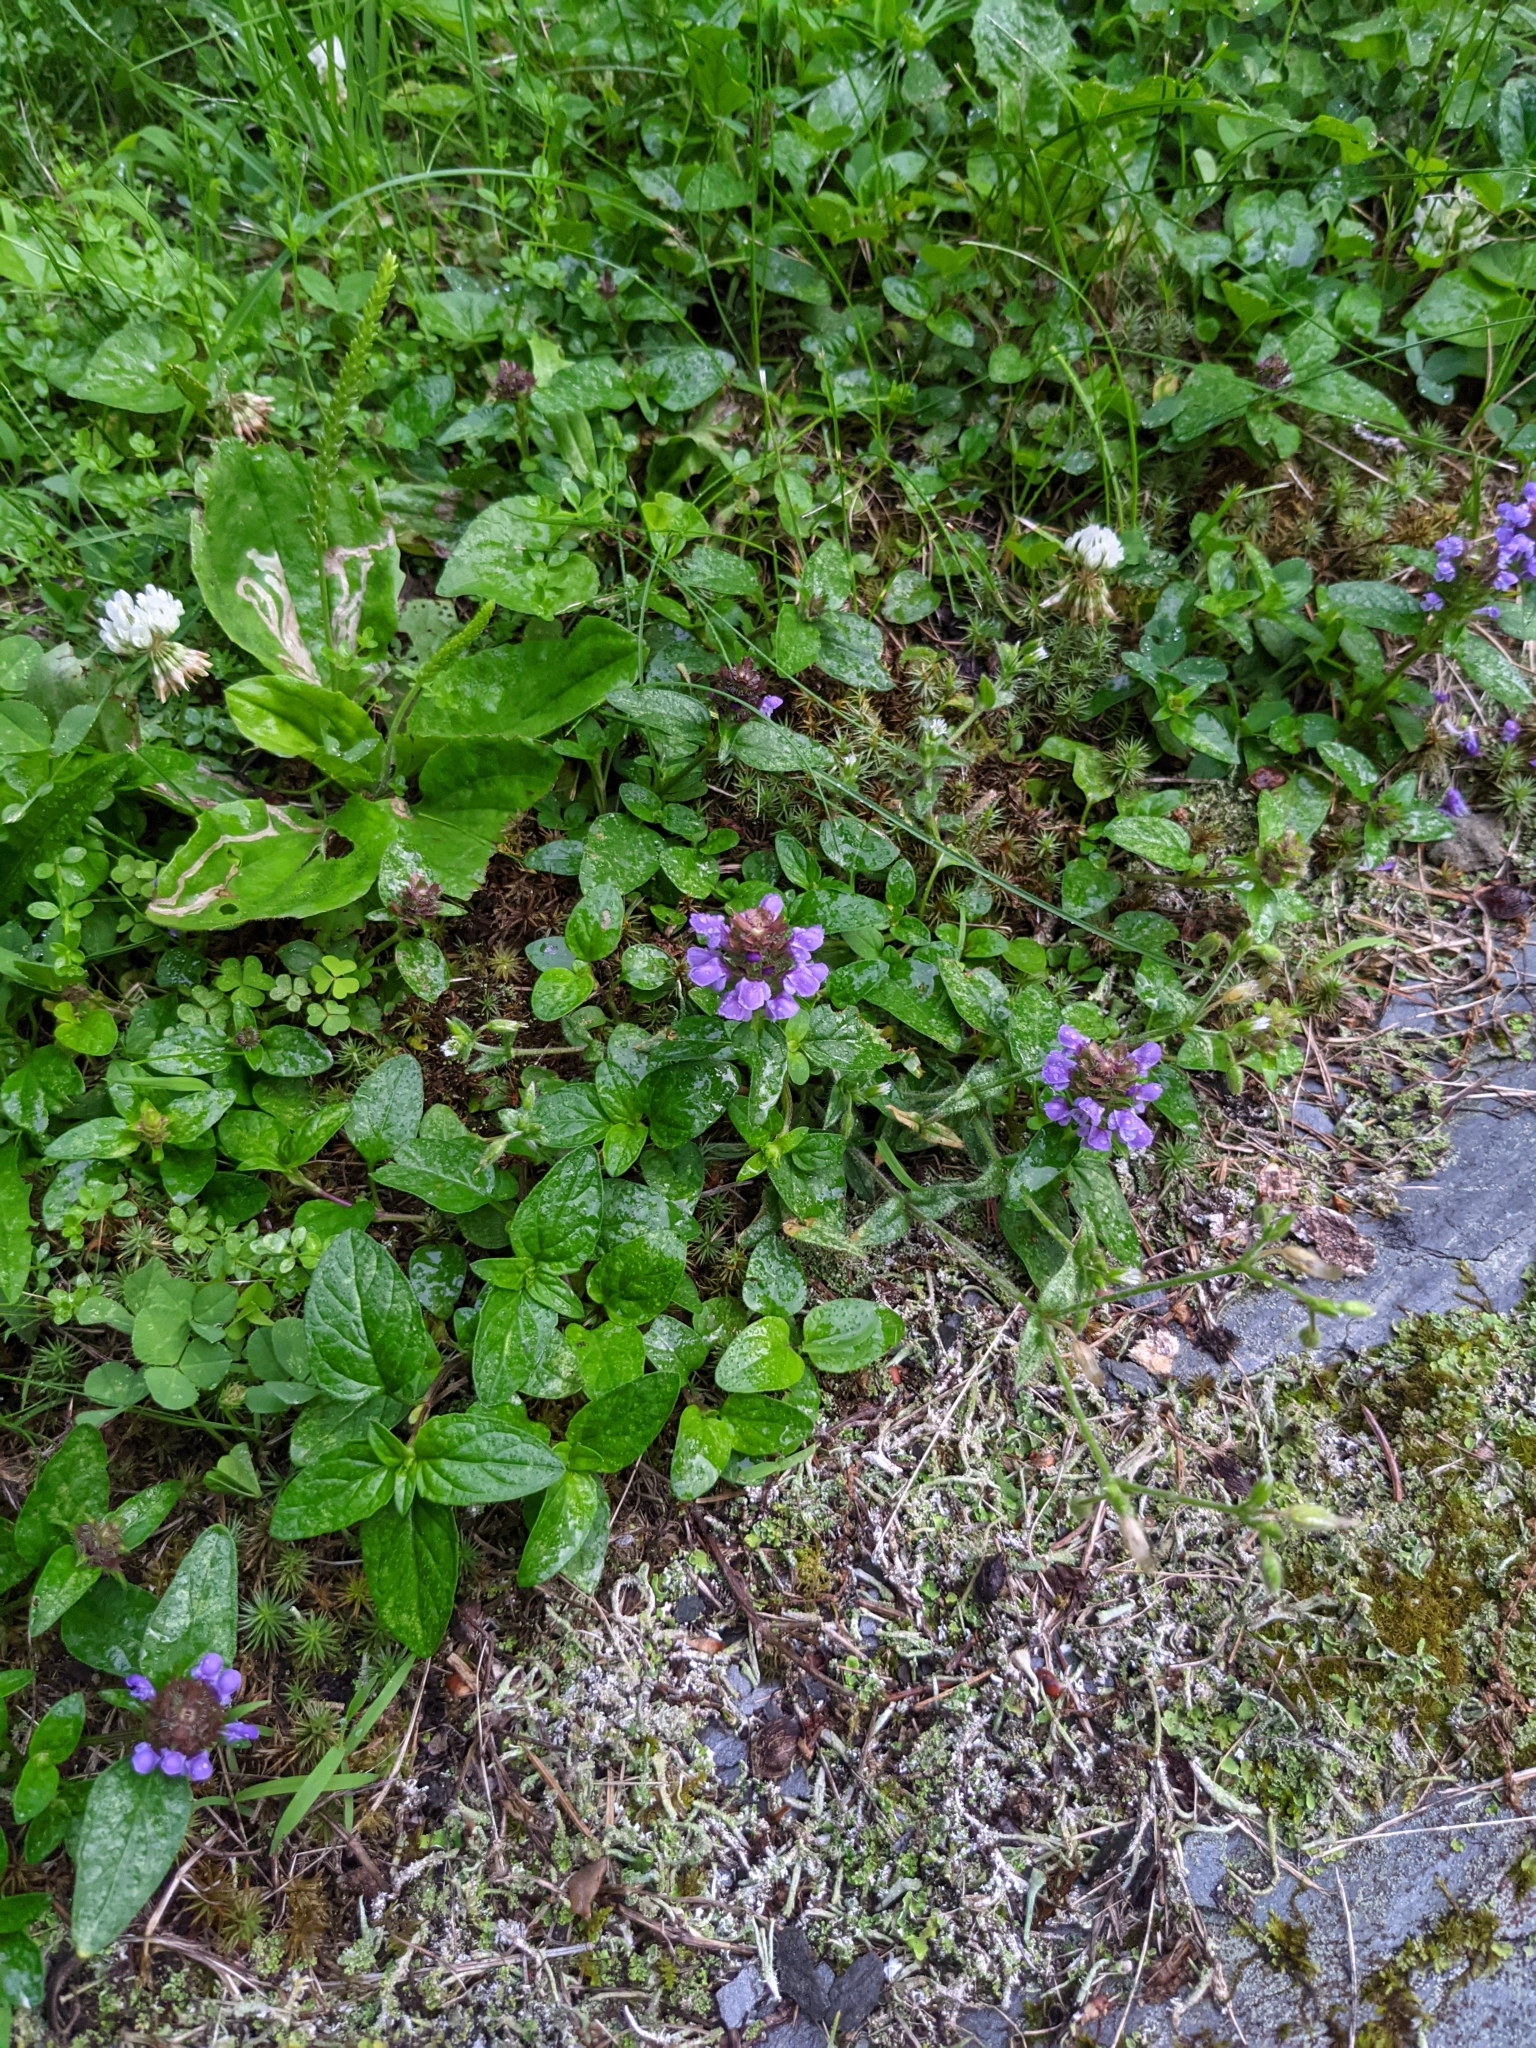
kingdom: Plantae
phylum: Tracheophyta
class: Magnoliopsida
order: Lamiales
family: Lamiaceae
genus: Prunella
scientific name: Prunella vulgaris
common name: Heal-all
